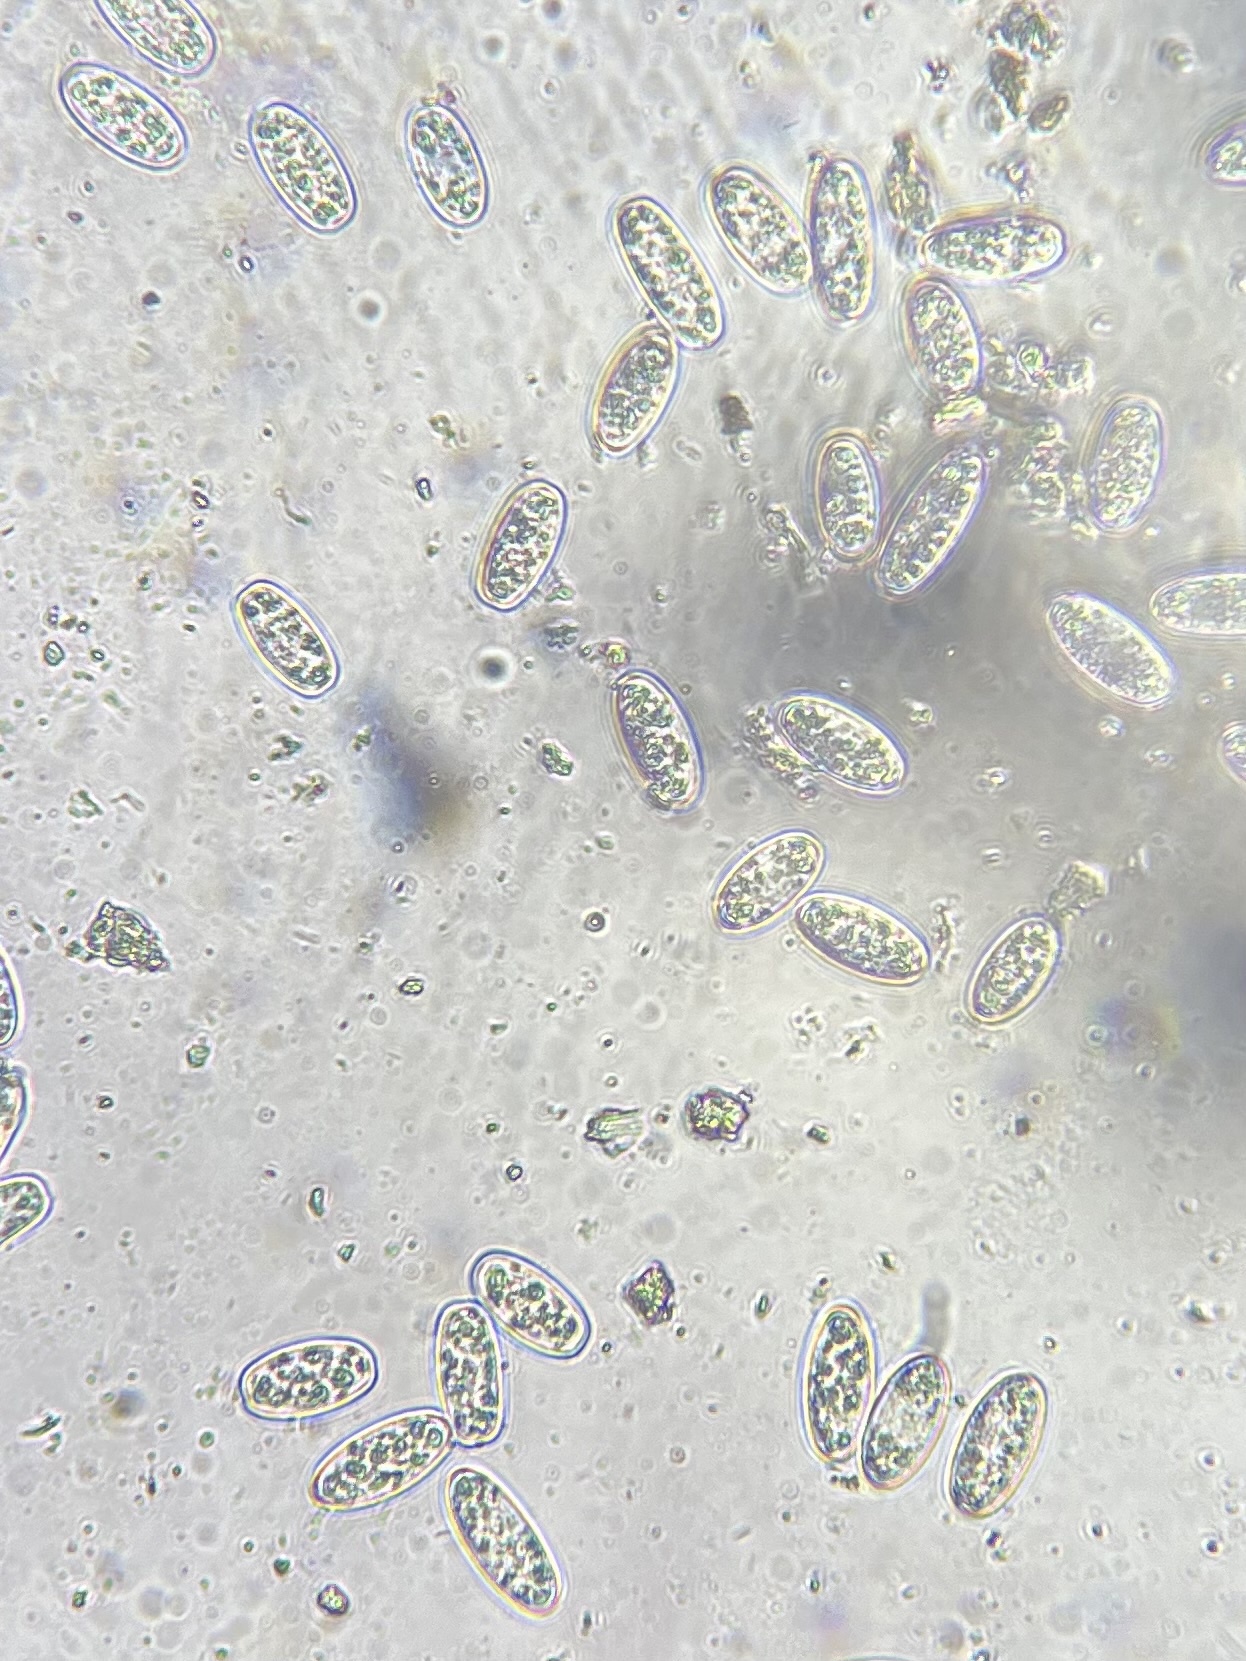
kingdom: Fungi
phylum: Ascomycota
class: Pezizomycetes
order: Pezizales
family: Sarcoscyphaceae
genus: Sarcoscypha
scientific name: Sarcoscypha austriaca
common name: Scarlet elfcup
